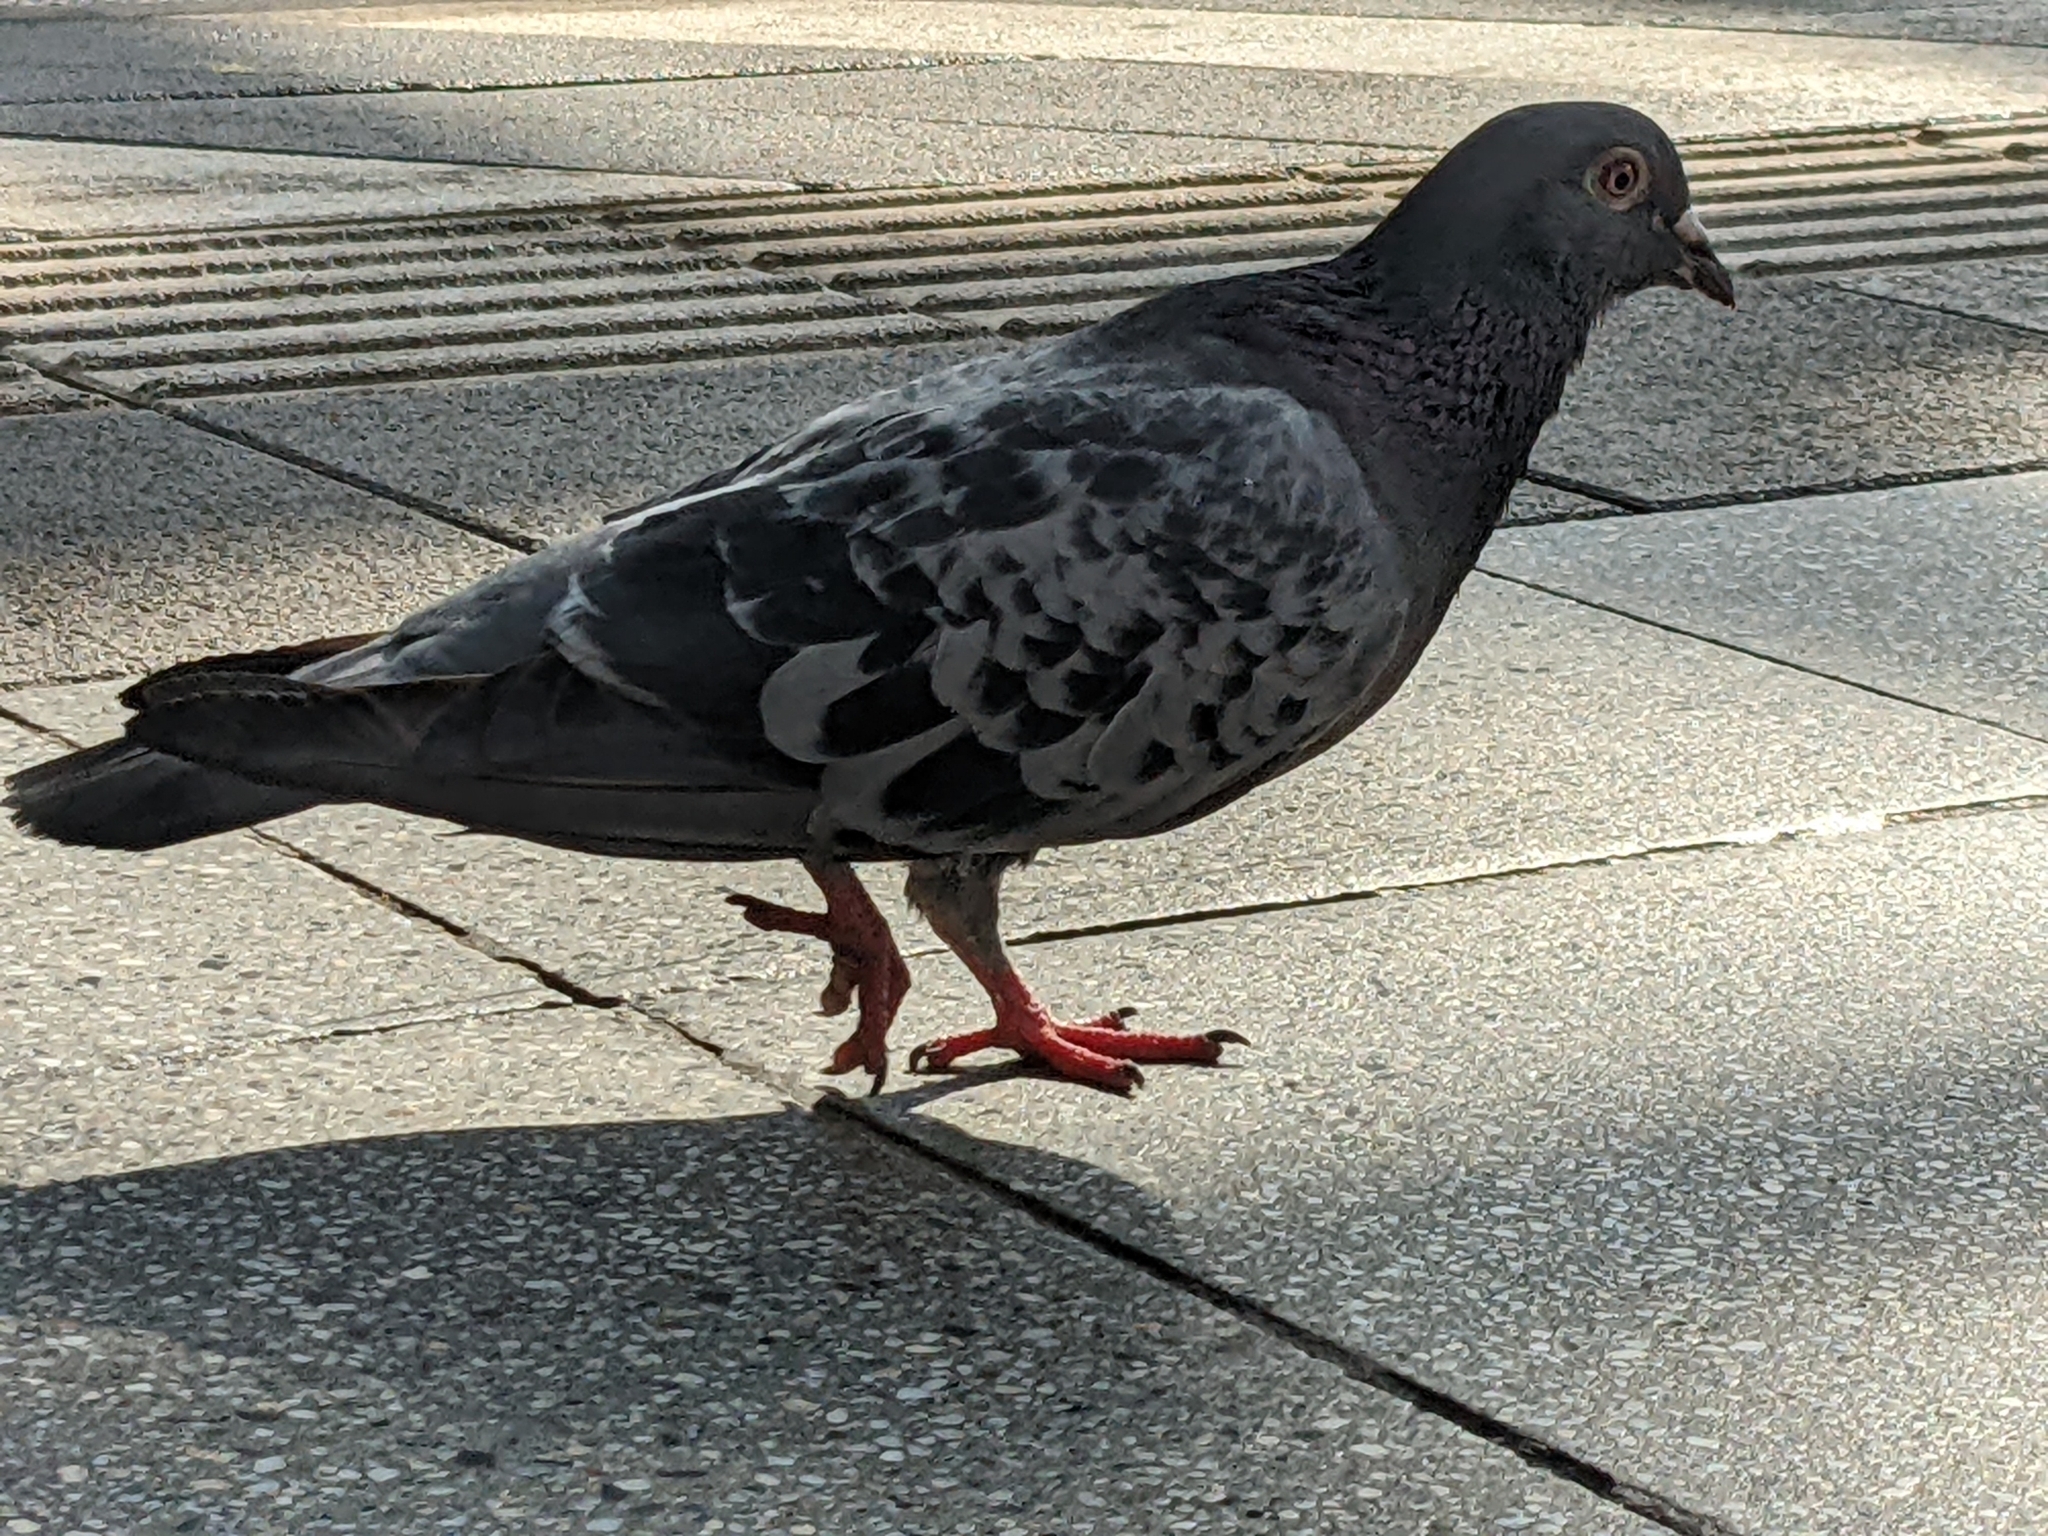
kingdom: Animalia
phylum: Chordata
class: Aves
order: Columbiformes
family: Columbidae
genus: Columba
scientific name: Columba livia
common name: Rock pigeon
